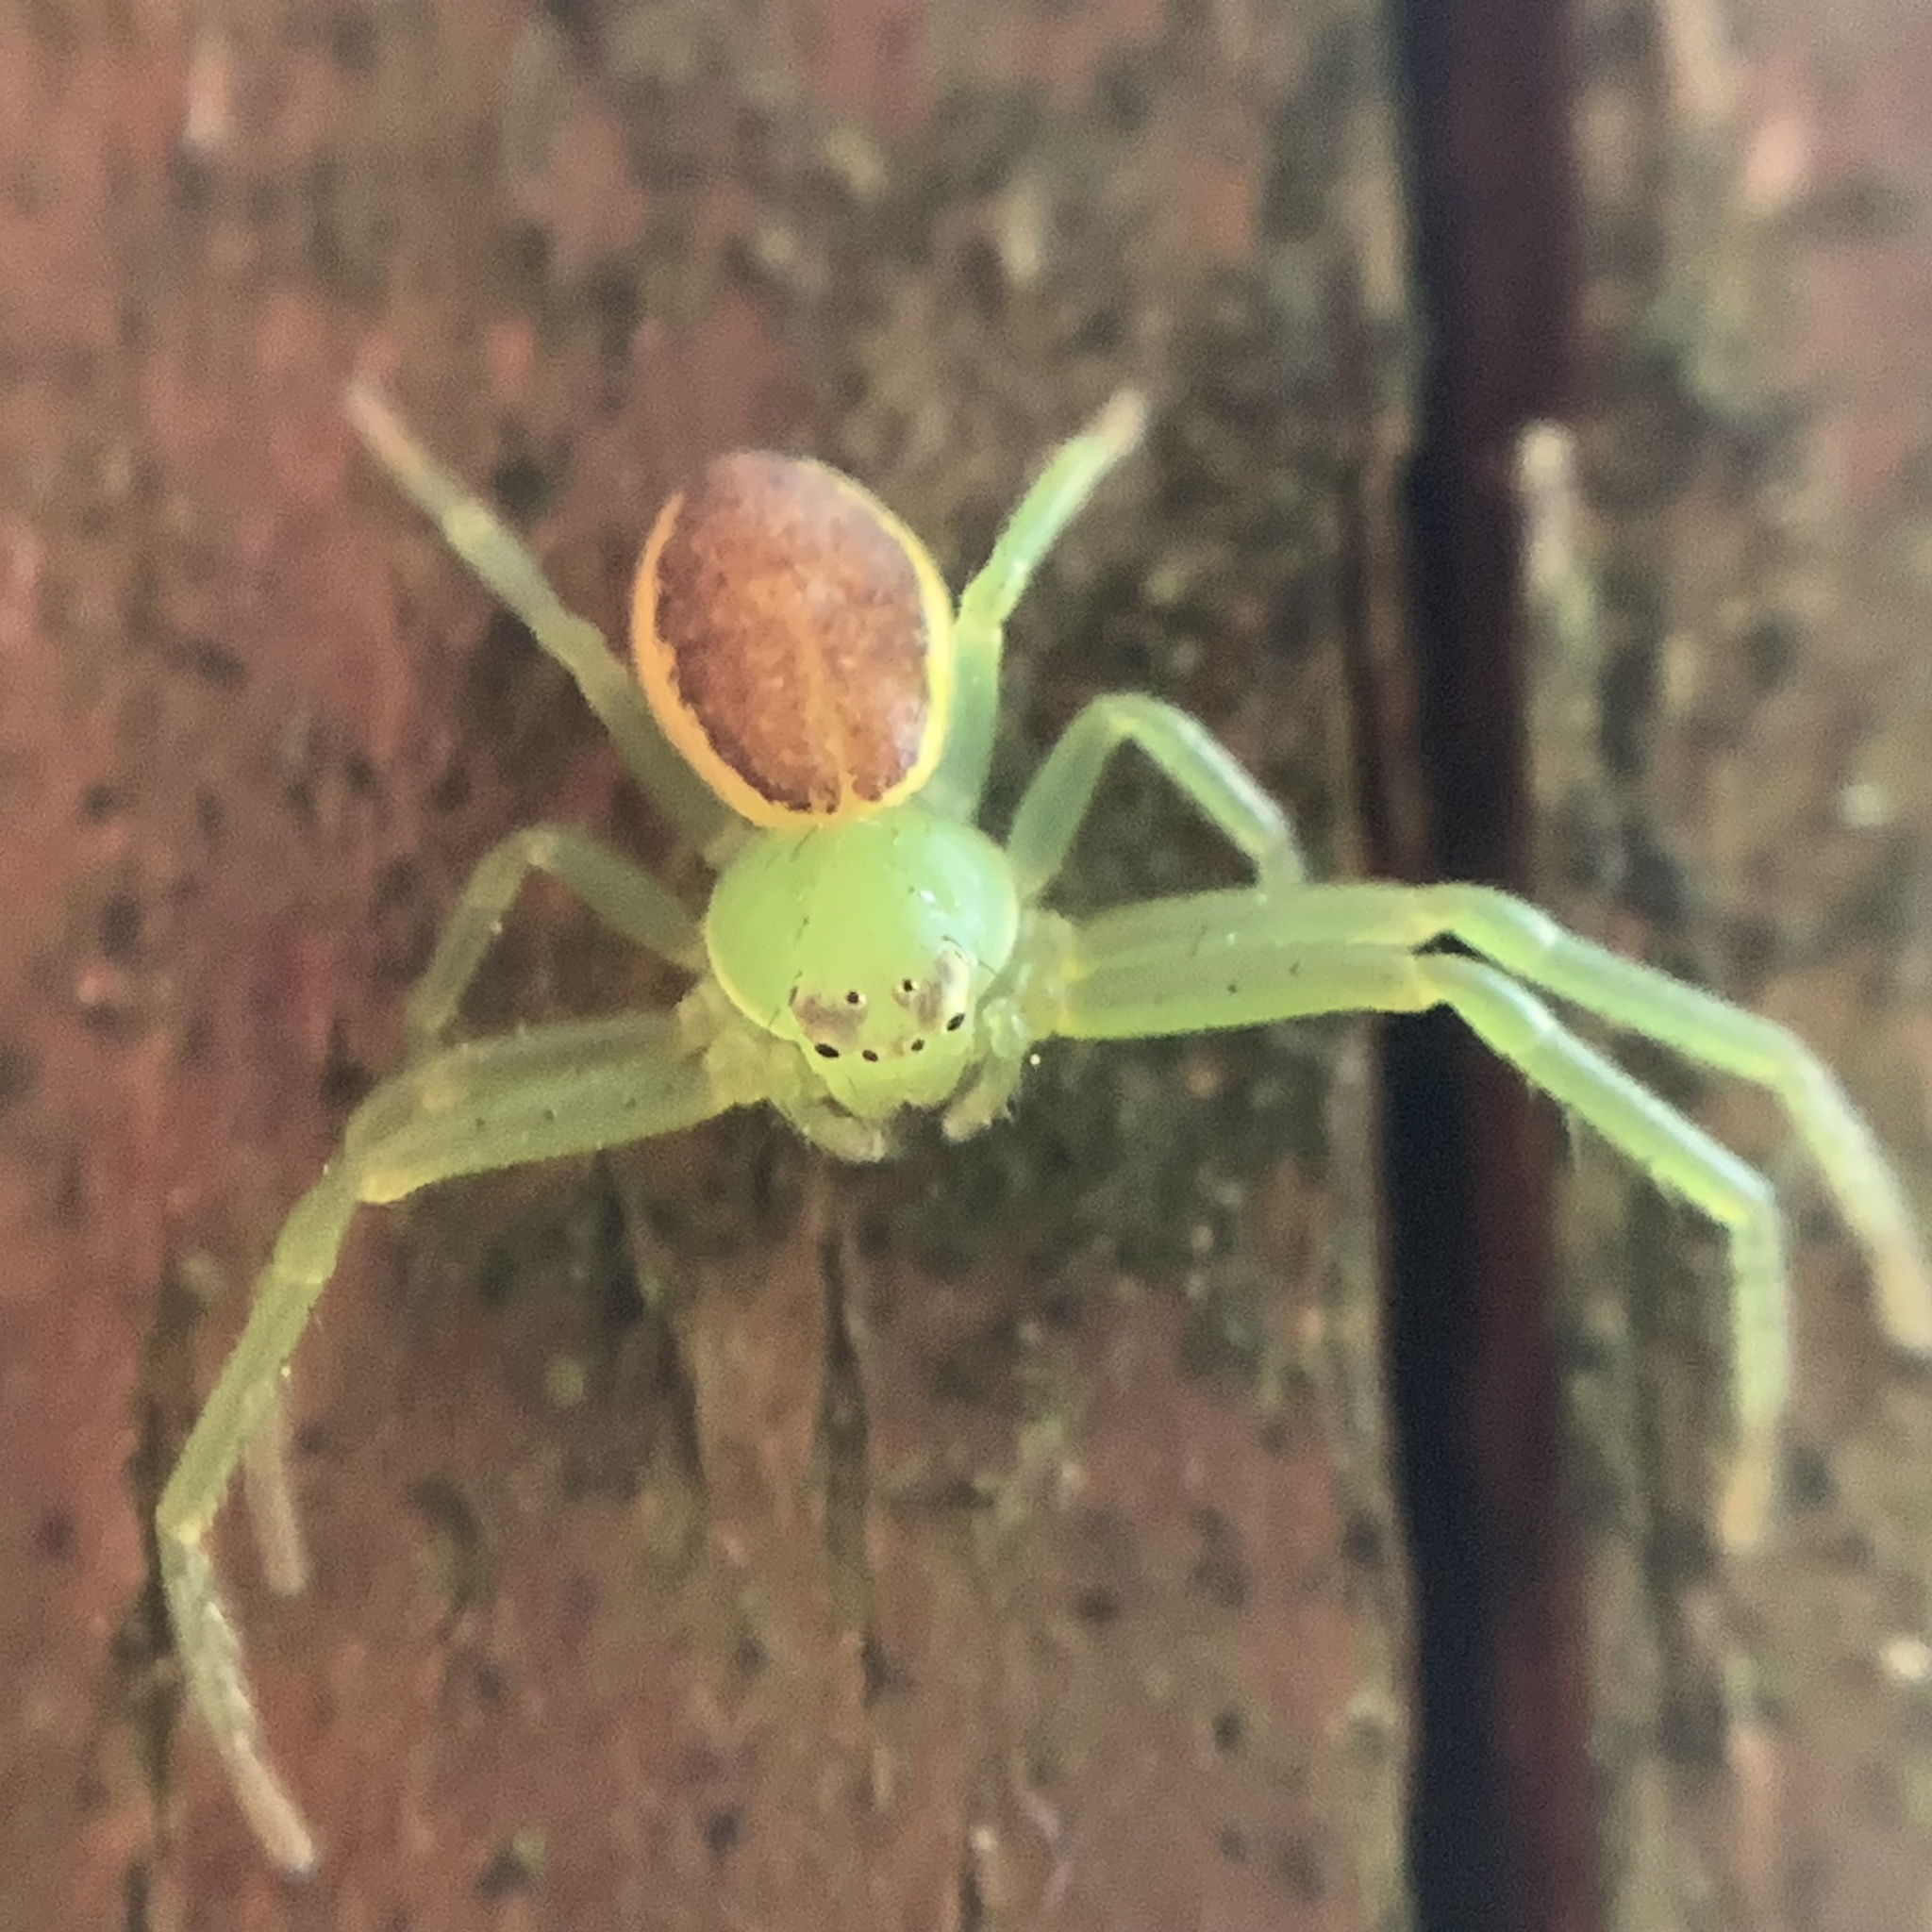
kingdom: Animalia
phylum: Arthropoda
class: Arachnida
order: Araneae
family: Thomisidae
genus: Diaea
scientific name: Diaea dorsata
